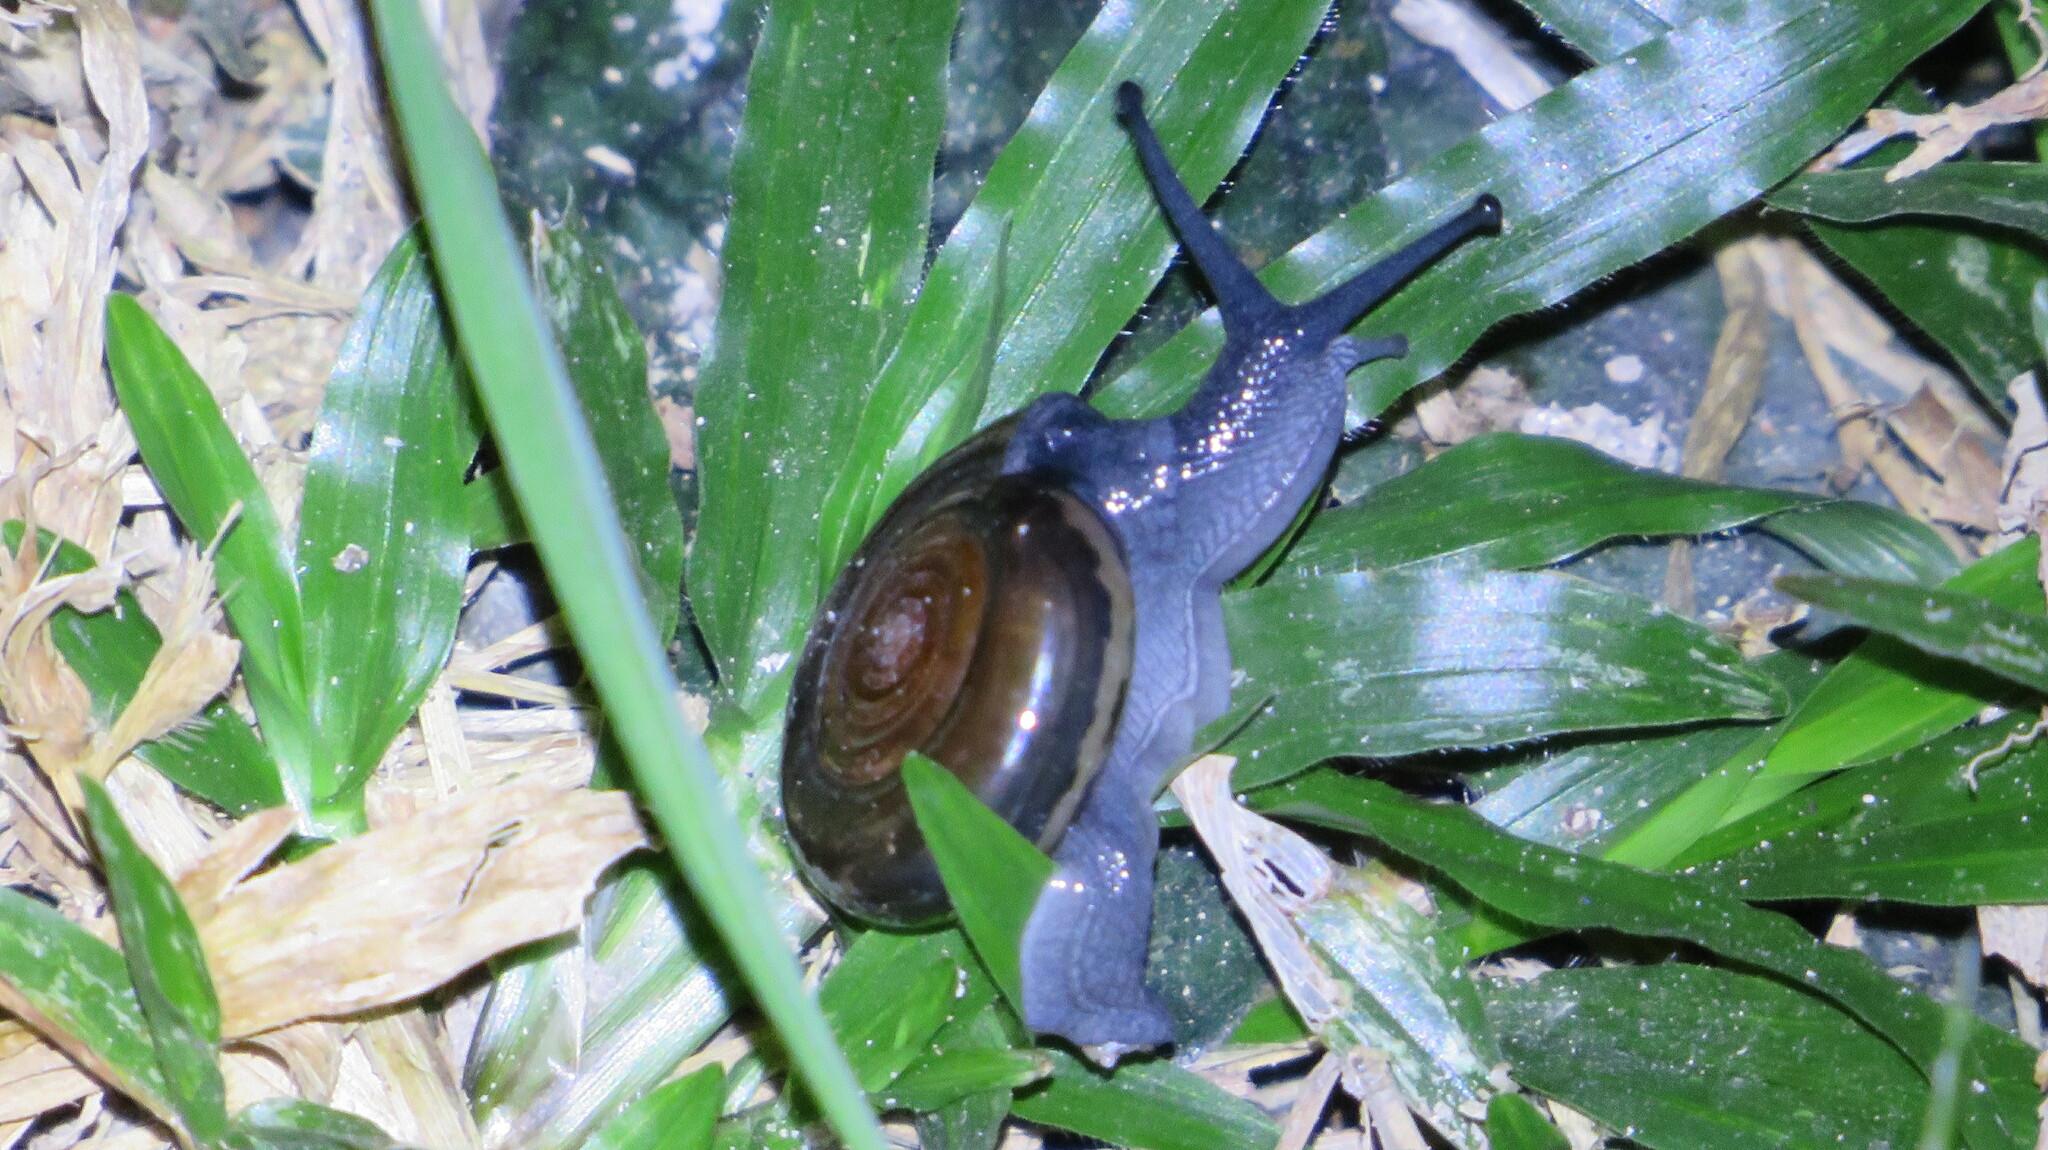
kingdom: Animalia
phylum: Mollusca
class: Gastropoda
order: Stylommatophora
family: Ariophantidae
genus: Sarika
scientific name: Sarika resplendens
